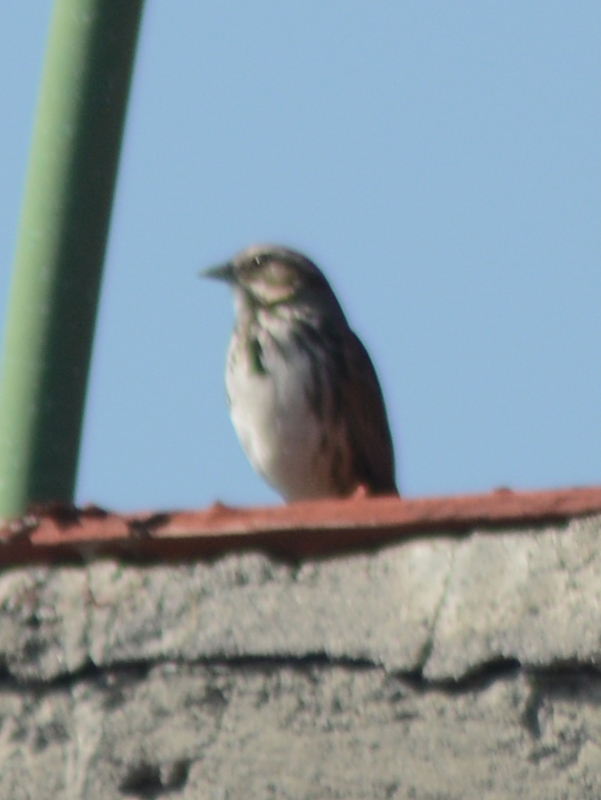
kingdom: Animalia
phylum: Chordata
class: Aves
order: Passeriformes
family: Passerellidae
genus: Melospiza
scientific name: Melospiza melodia
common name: Song sparrow
